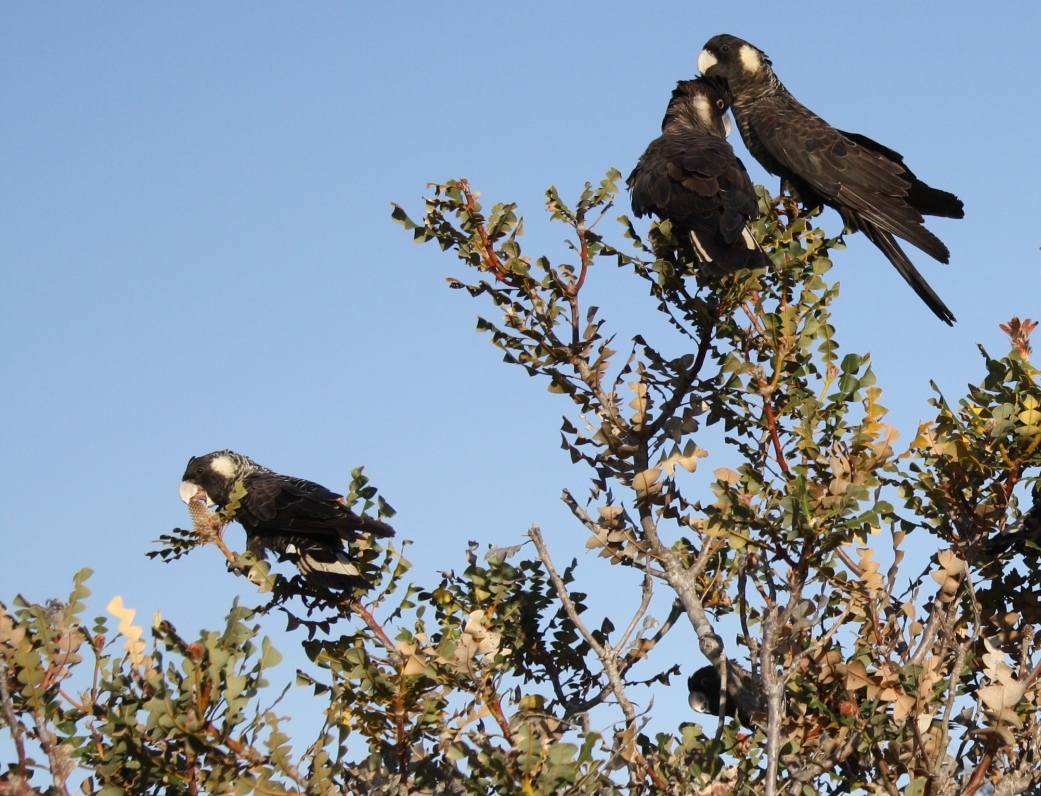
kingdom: Animalia
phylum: Chordata
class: Aves
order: Psittaciformes
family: Cacatuidae
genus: Zanda
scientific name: Zanda latirostris
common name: Short-billed black-cockatoo
